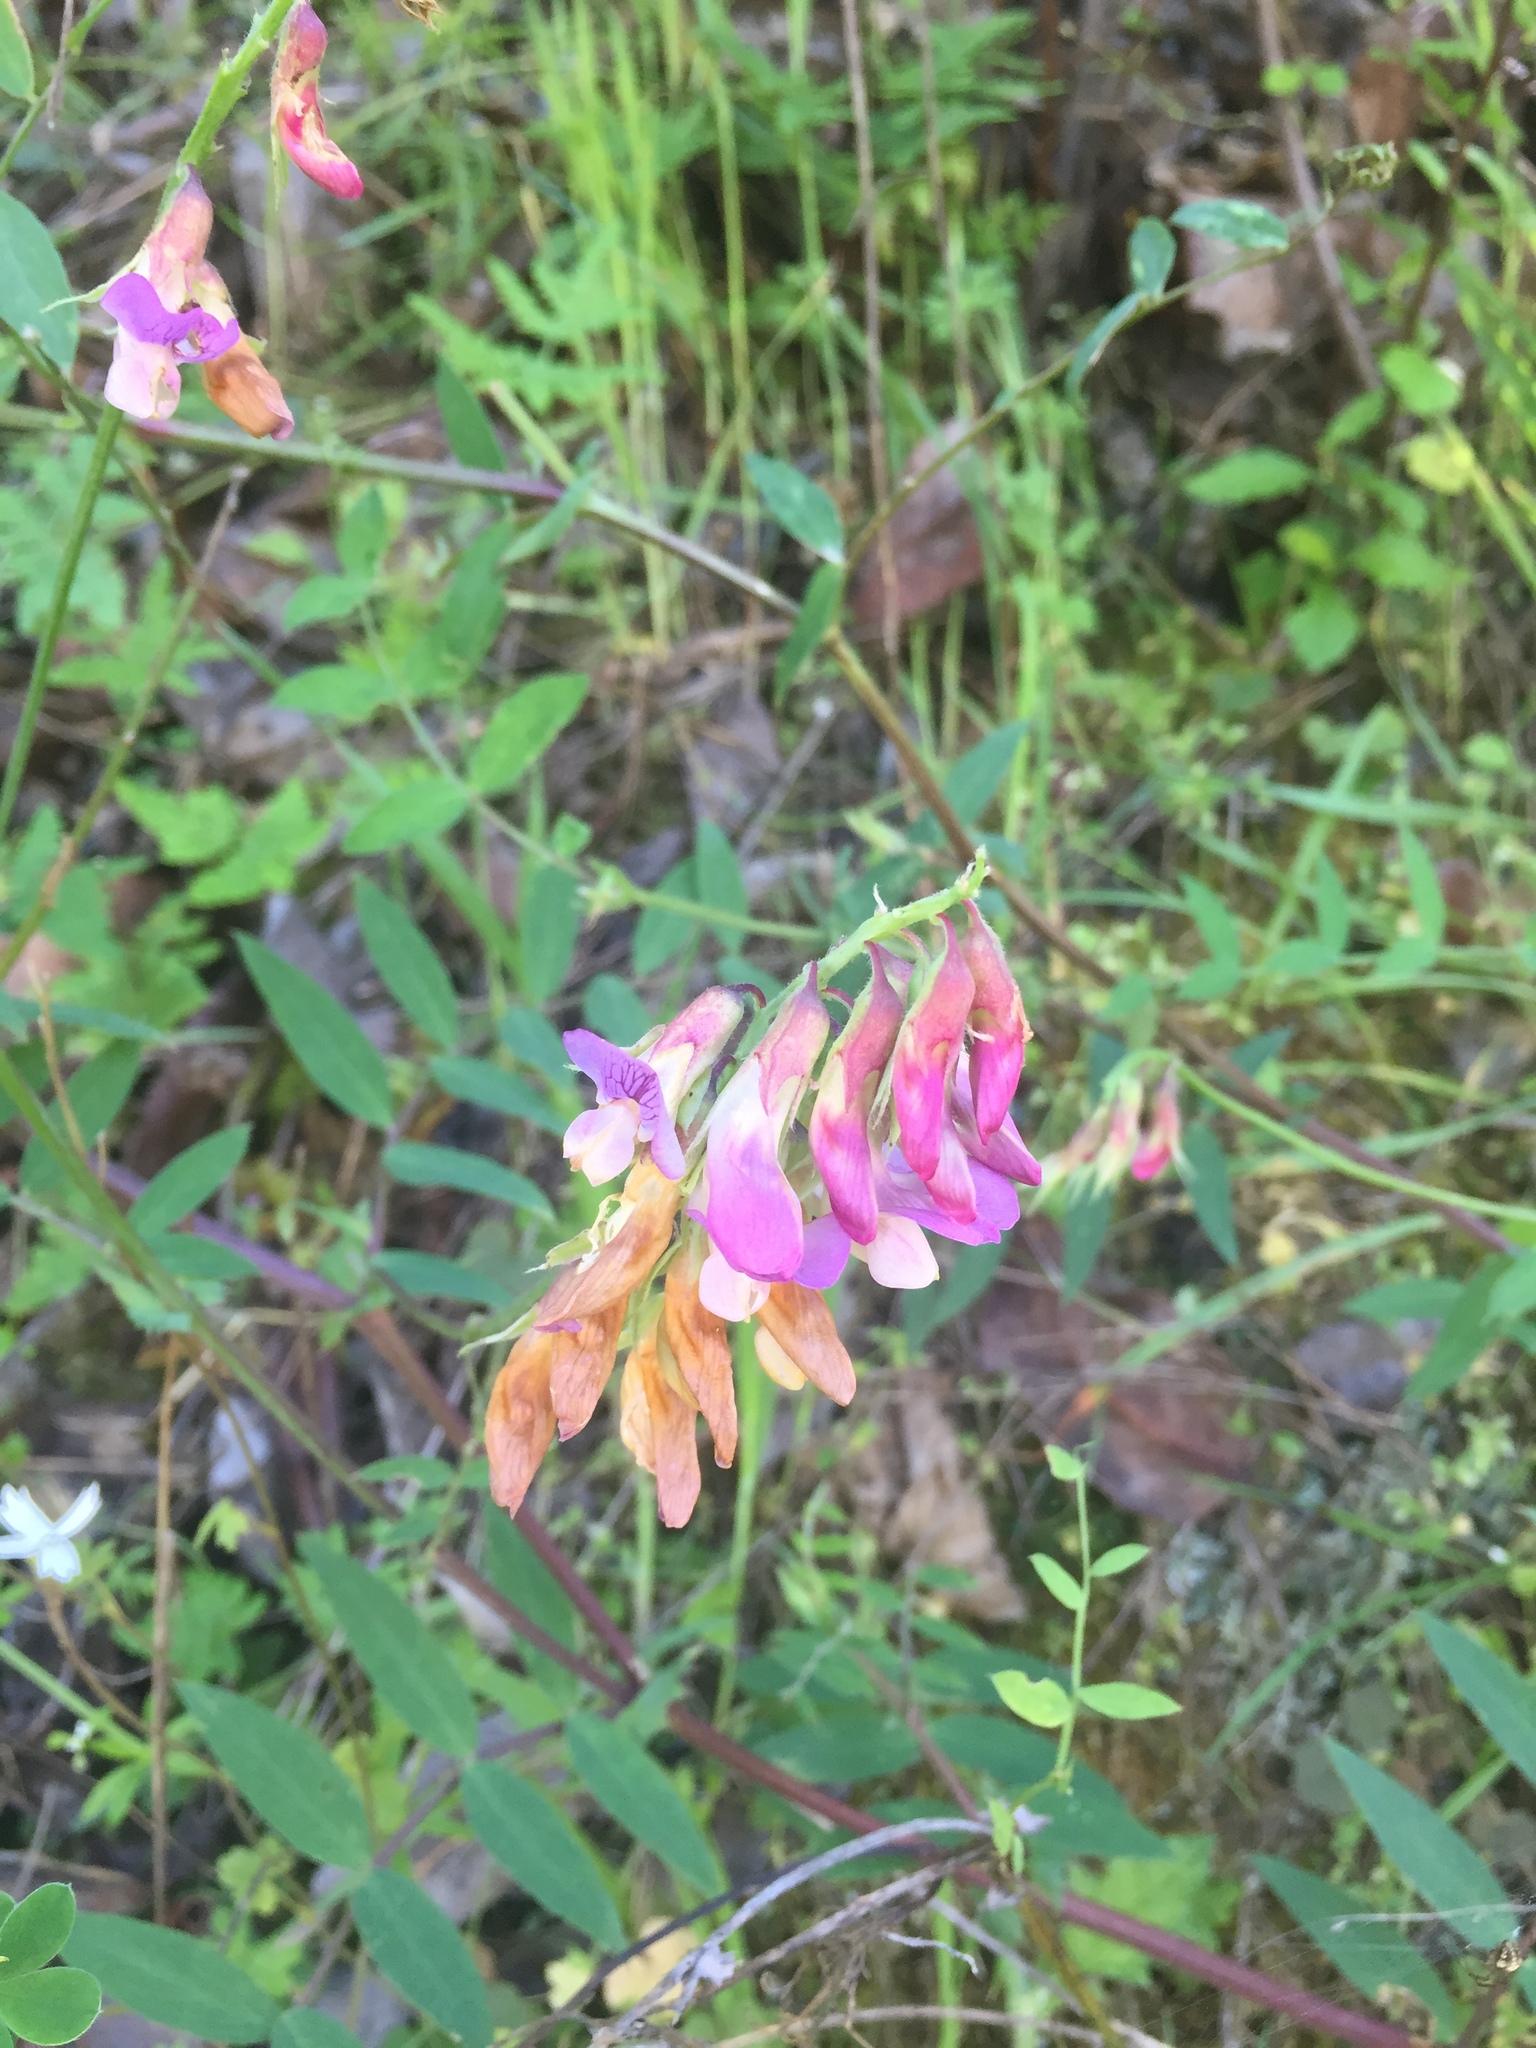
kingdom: Plantae
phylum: Tracheophyta
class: Magnoliopsida
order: Fabales
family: Fabaceae
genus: Lathyrus
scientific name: Lathyrus vestitus
